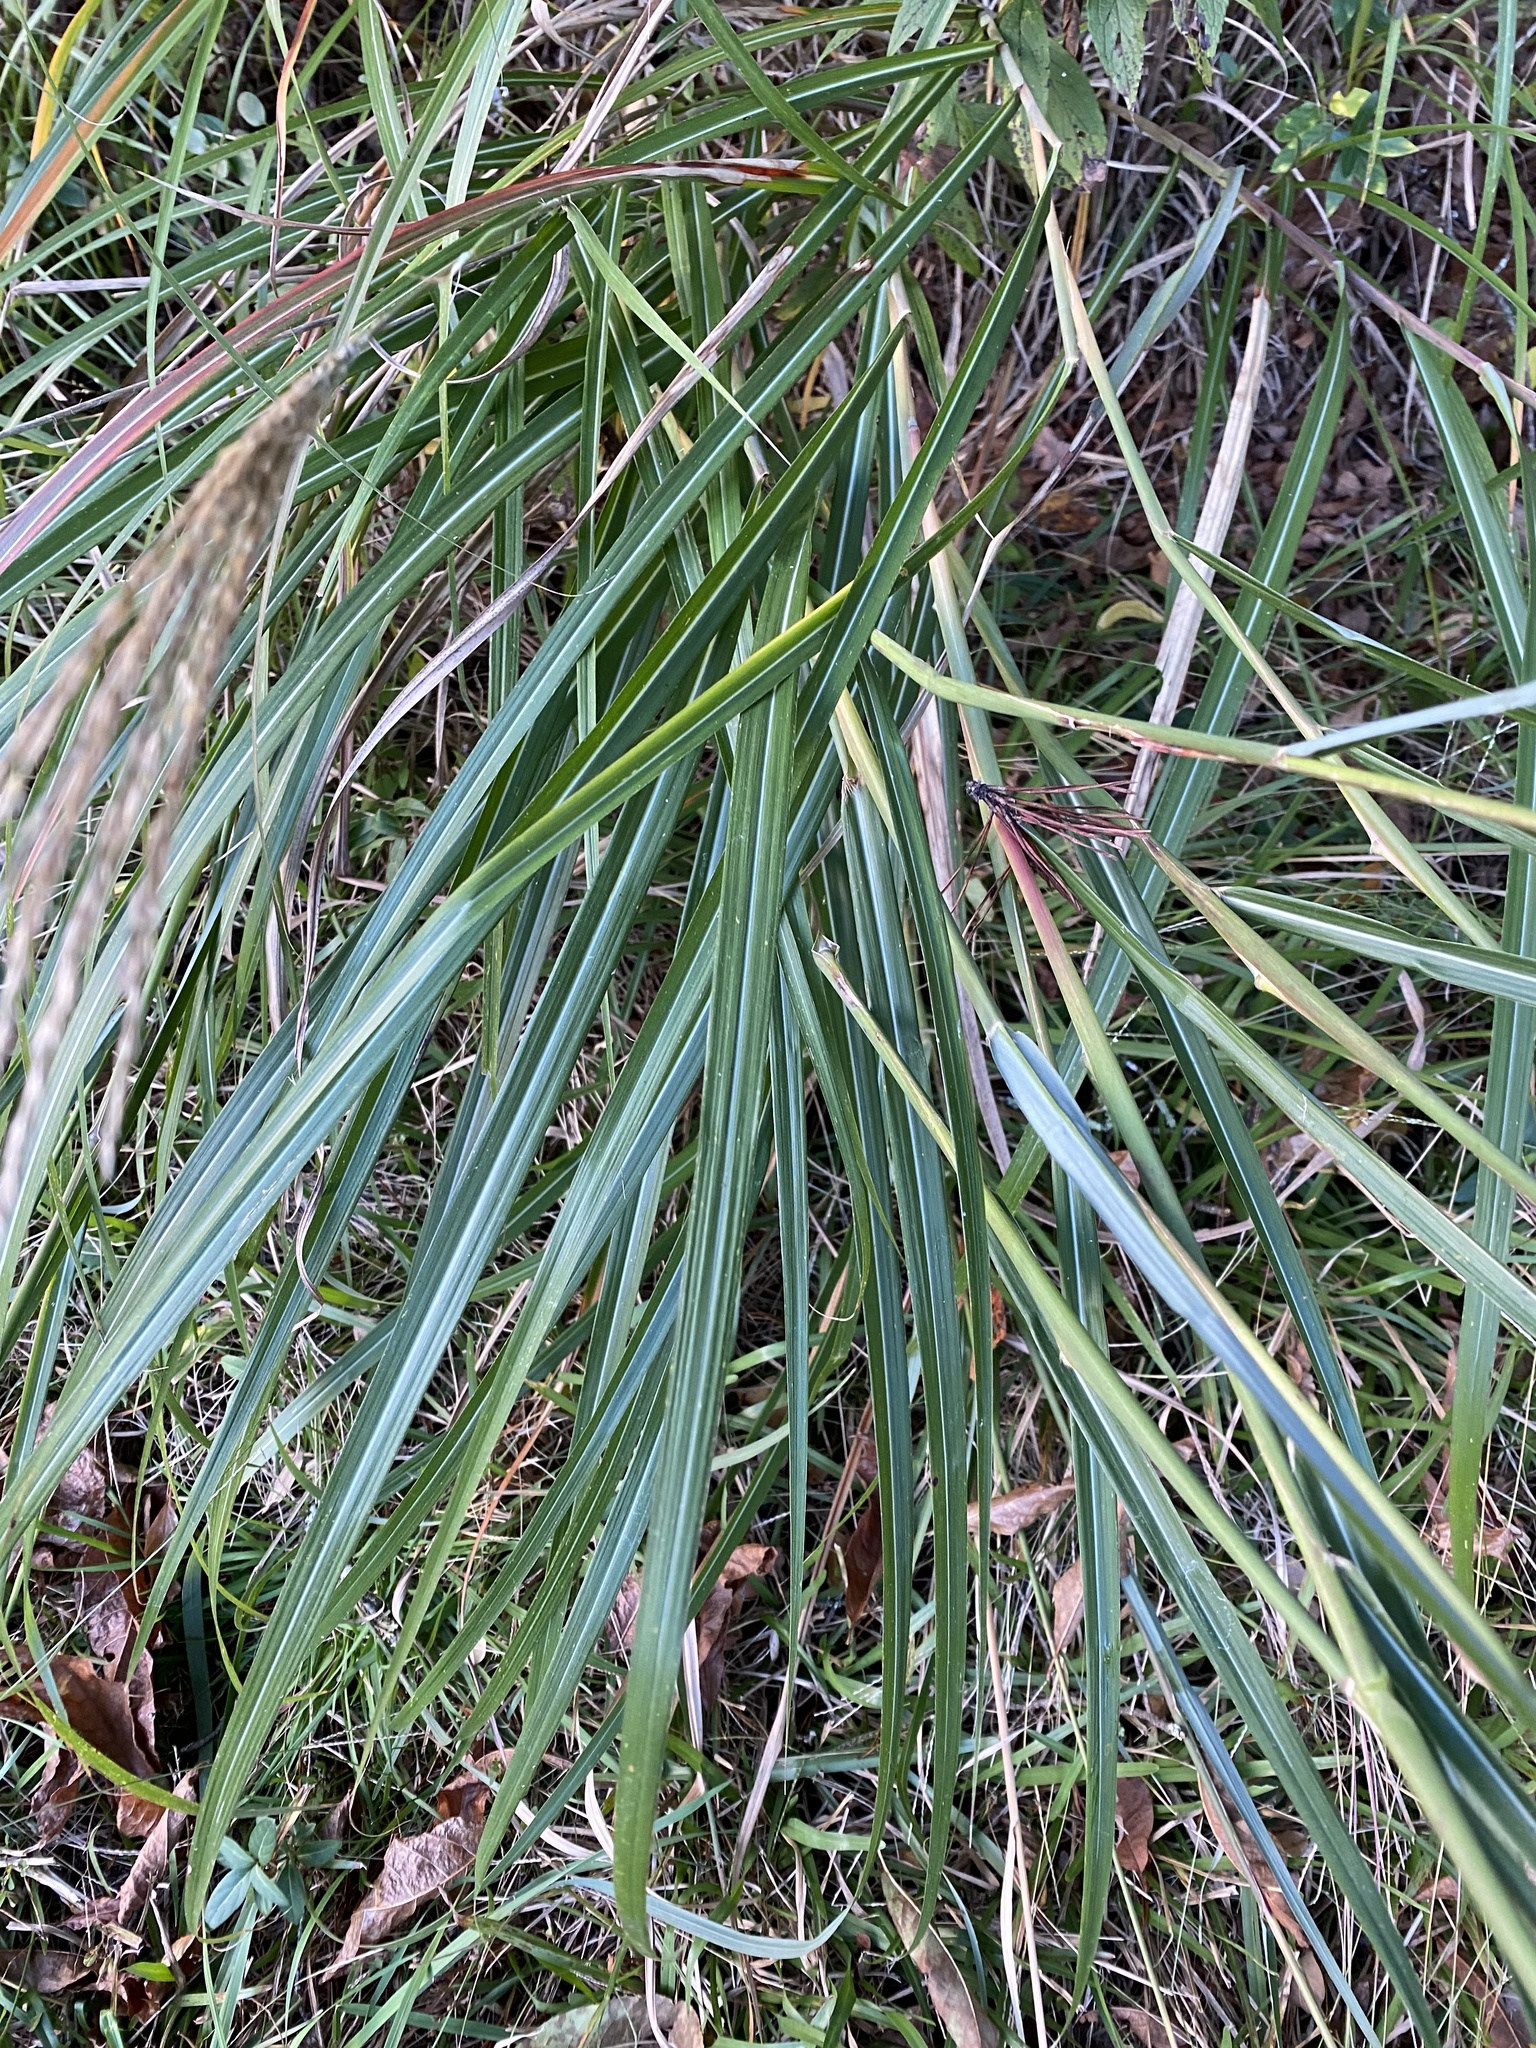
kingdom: Plantae
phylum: Tracheophyta
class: Liliopsida
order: Poales
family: Poaceae
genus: Miscanthus
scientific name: Miscanthus sinensis
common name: Chinese silvergrass
